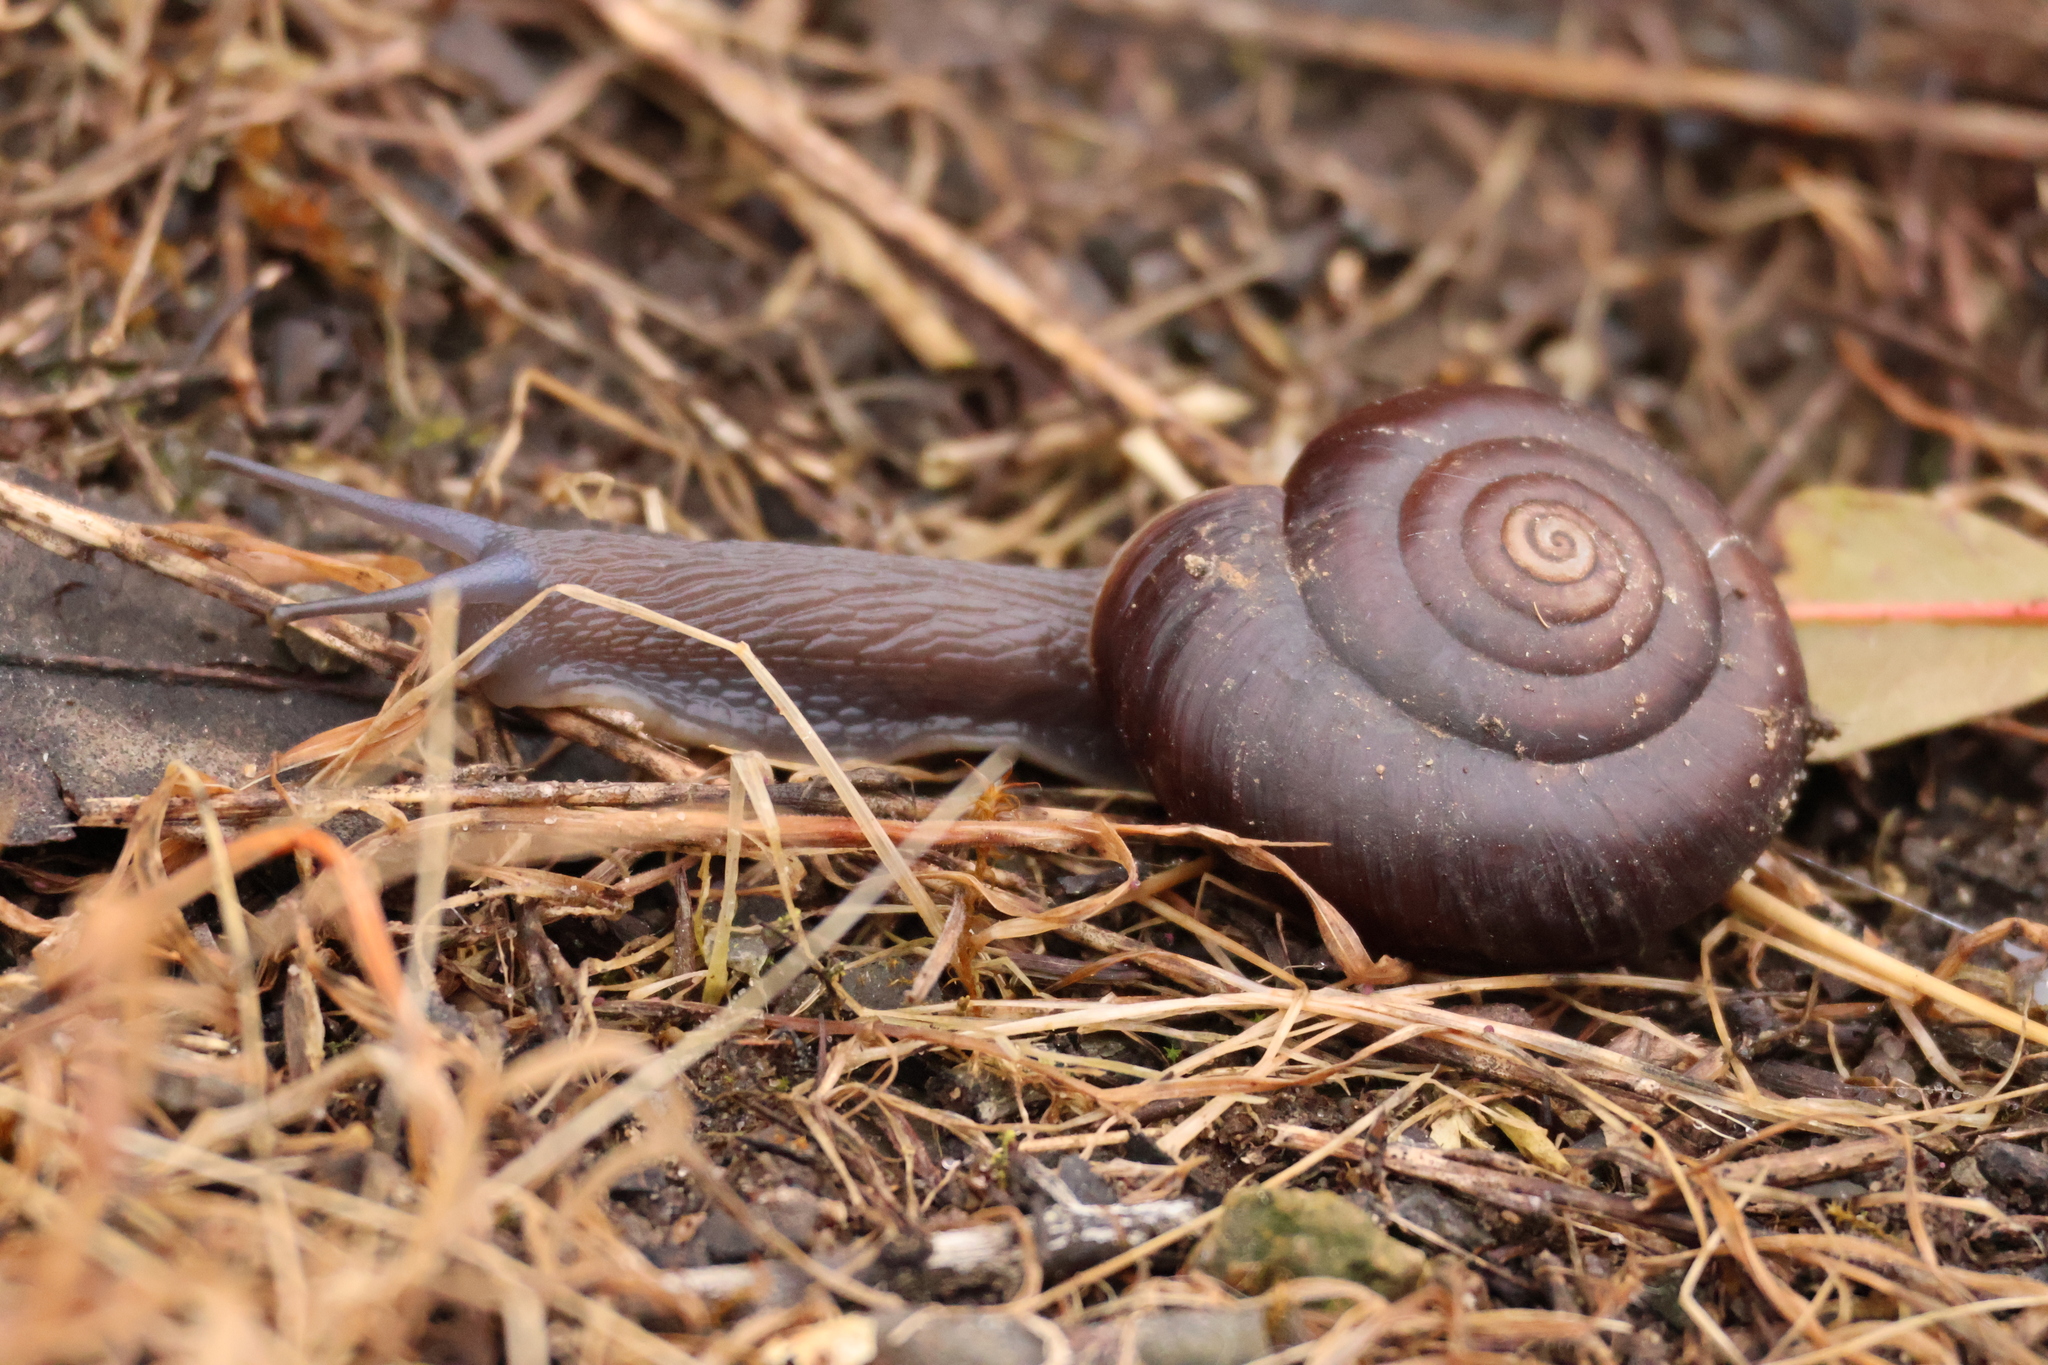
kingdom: Animalia
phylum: Mollusca
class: Gastropoda
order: Stylommatophora
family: Megomphicidae
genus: Glyptostoma
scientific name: Glyptostoma newberryanum
